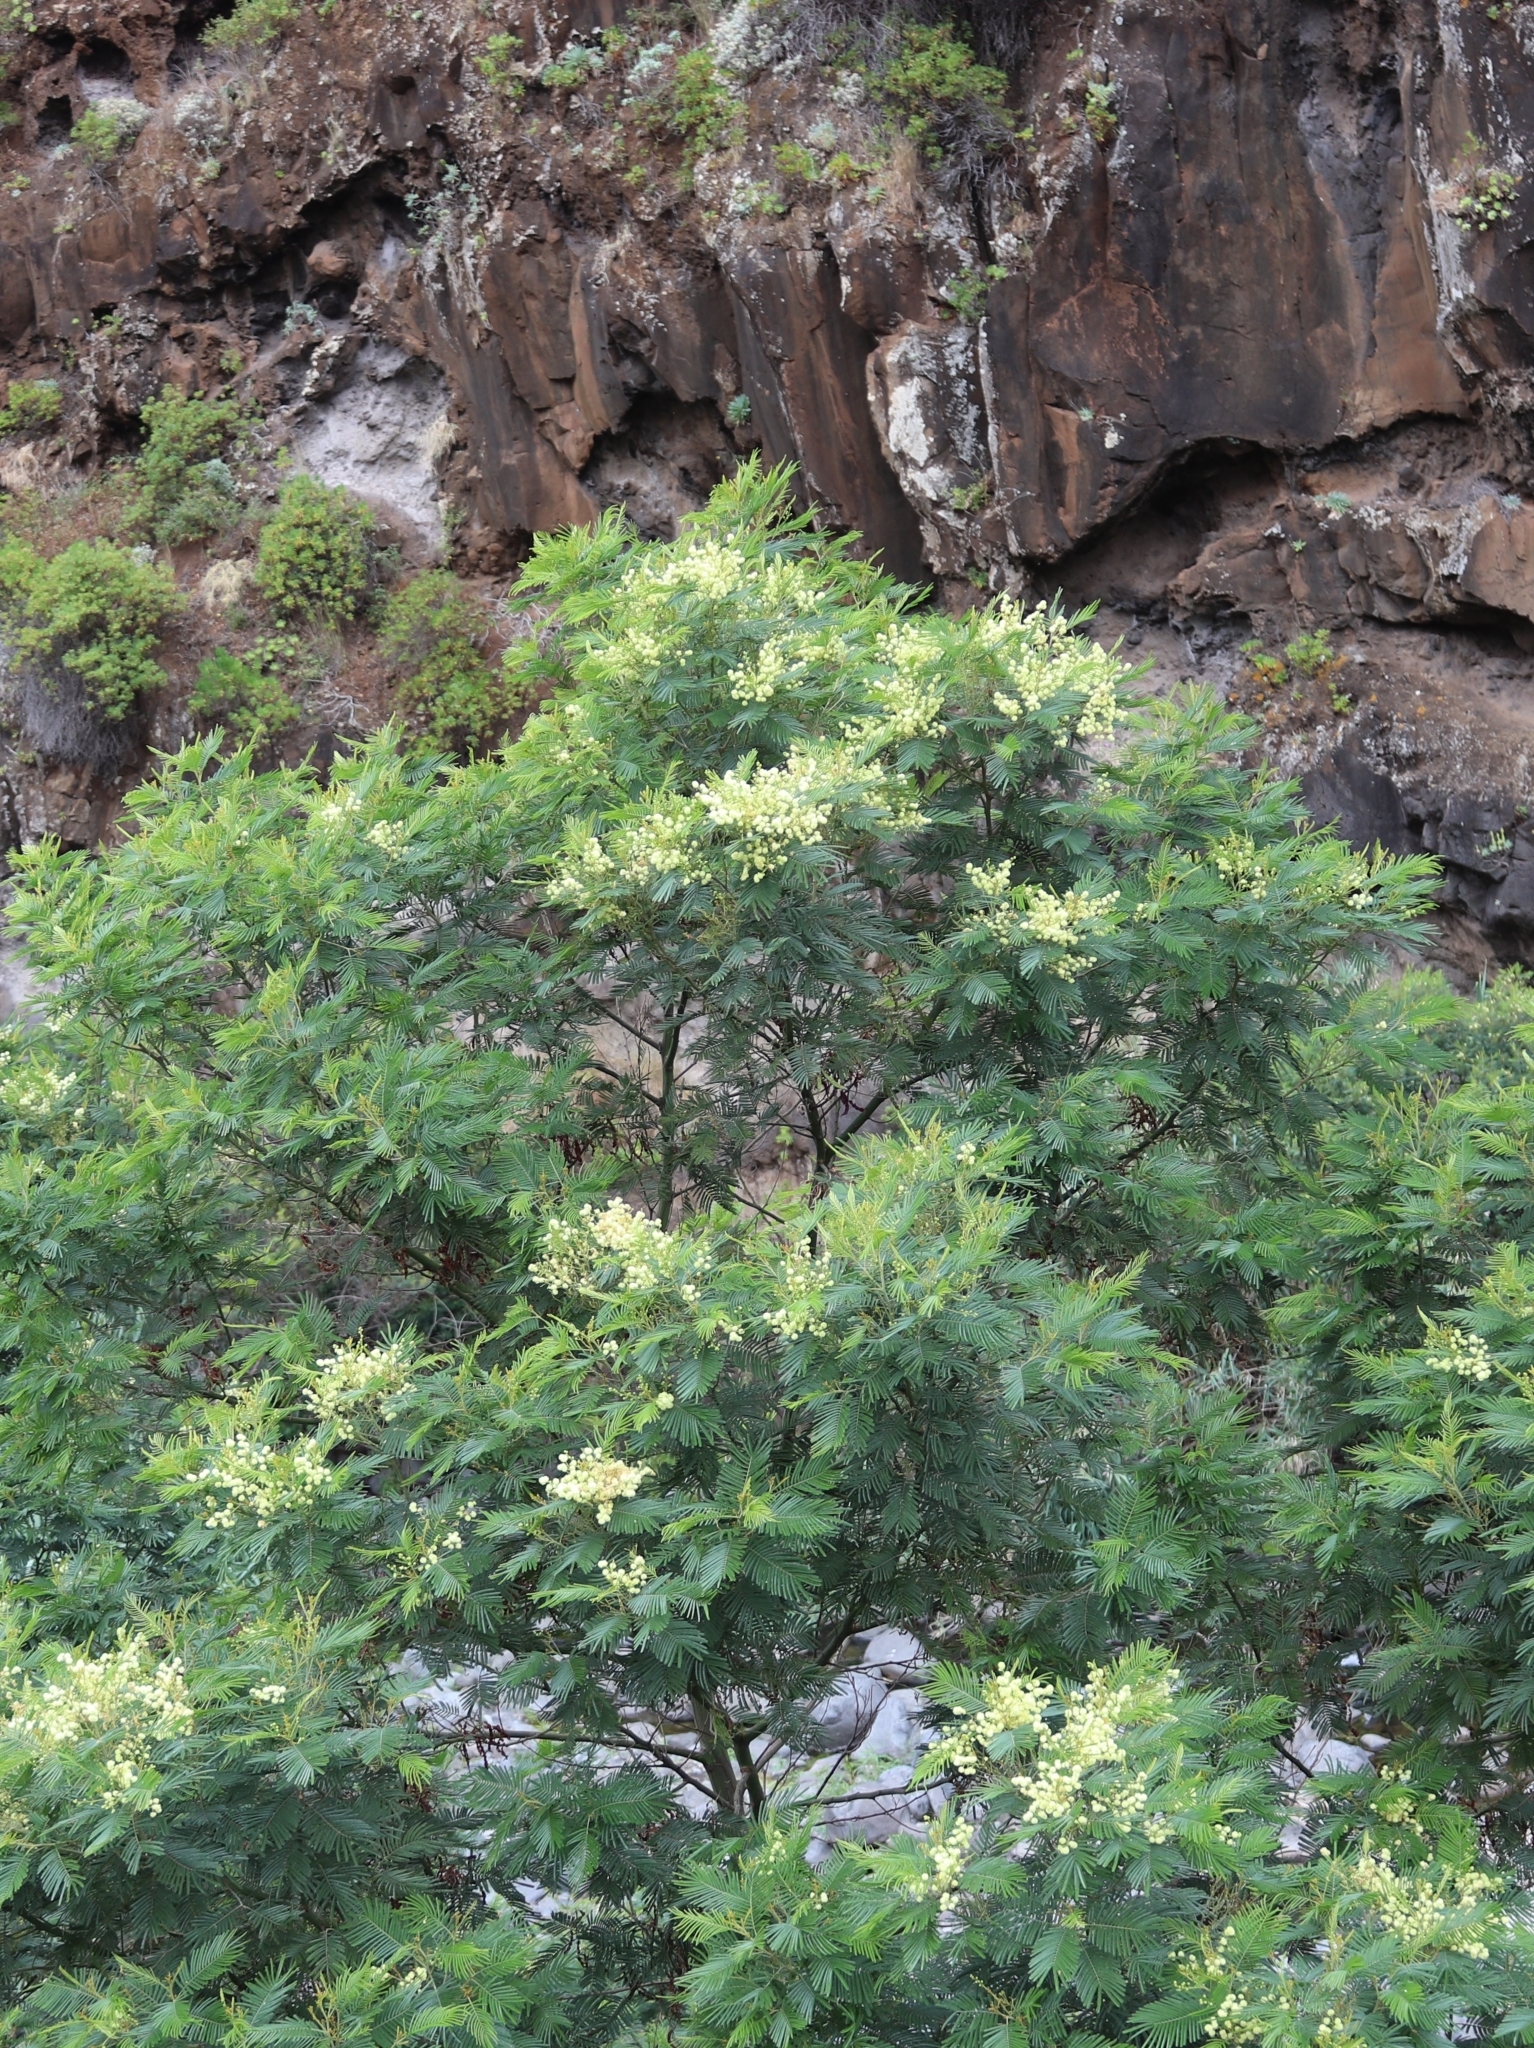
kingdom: Plantae
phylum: Tracheophyta
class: Magnoliopsida
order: Fabales
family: Fabaceae
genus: Acacia
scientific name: Acacia mearnsii
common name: Black wattle
